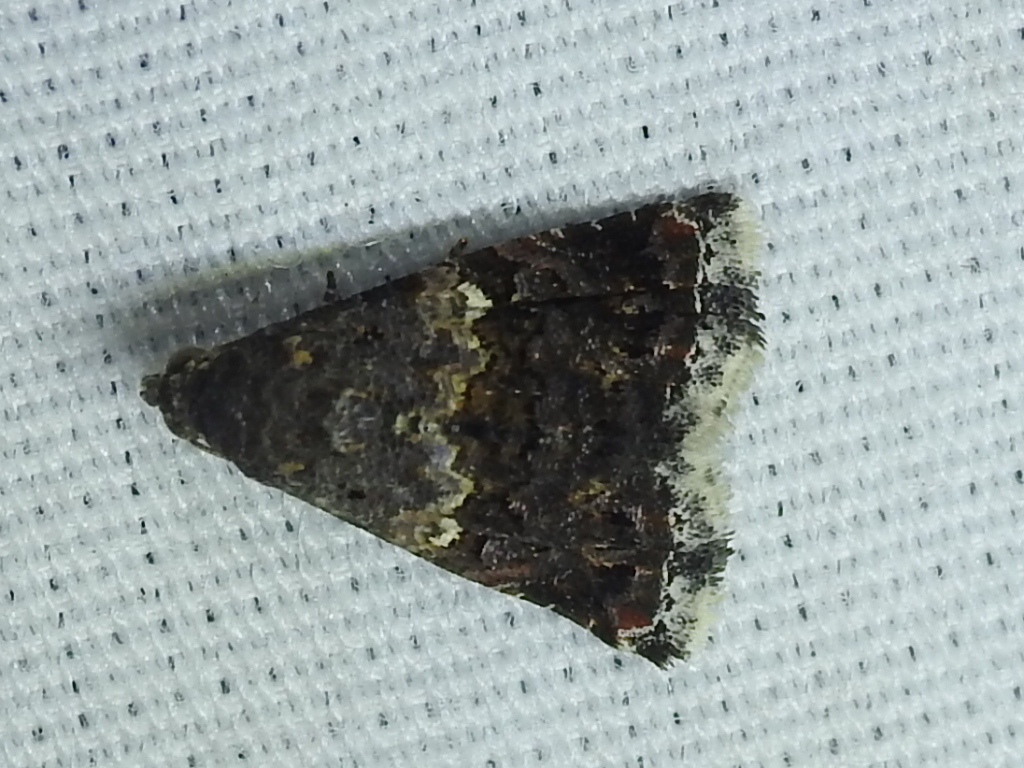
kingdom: Animalia
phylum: Arthropoda
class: Insecta
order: Lepidoptera
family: Noctuidae
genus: Tripudia
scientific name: Tripudia luxuriosa
